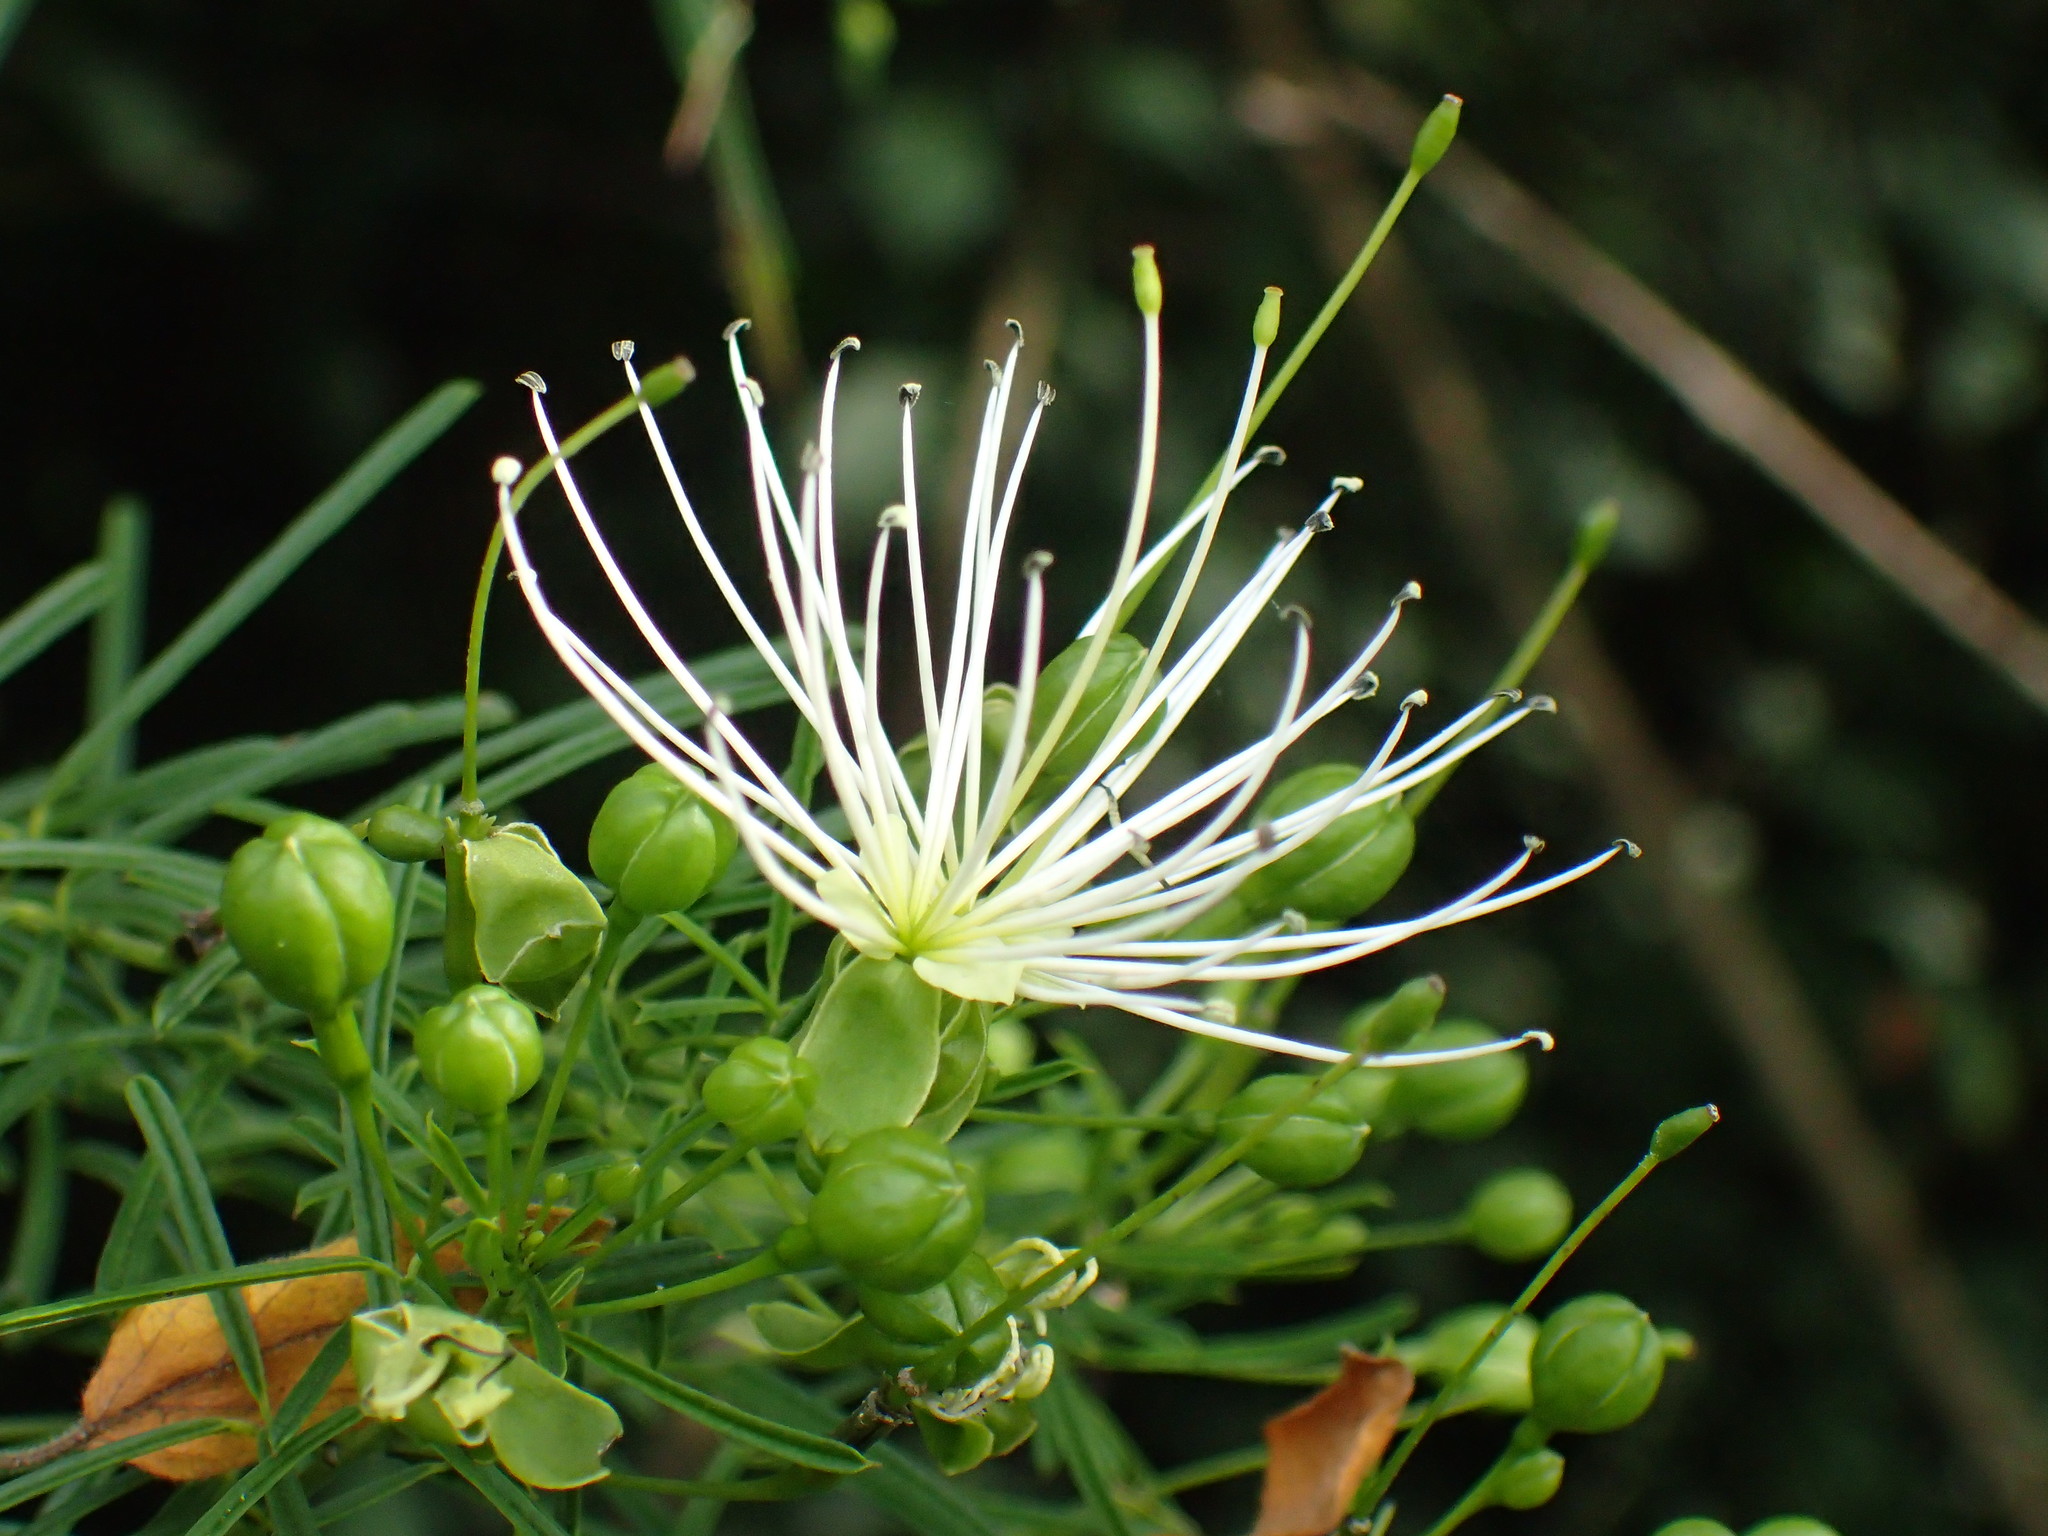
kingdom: Plantae
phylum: Tracheophyta
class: Magnoliopsida
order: Brassicales
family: Capparaceae
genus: Maerua
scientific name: Maerua rosmarinoides
